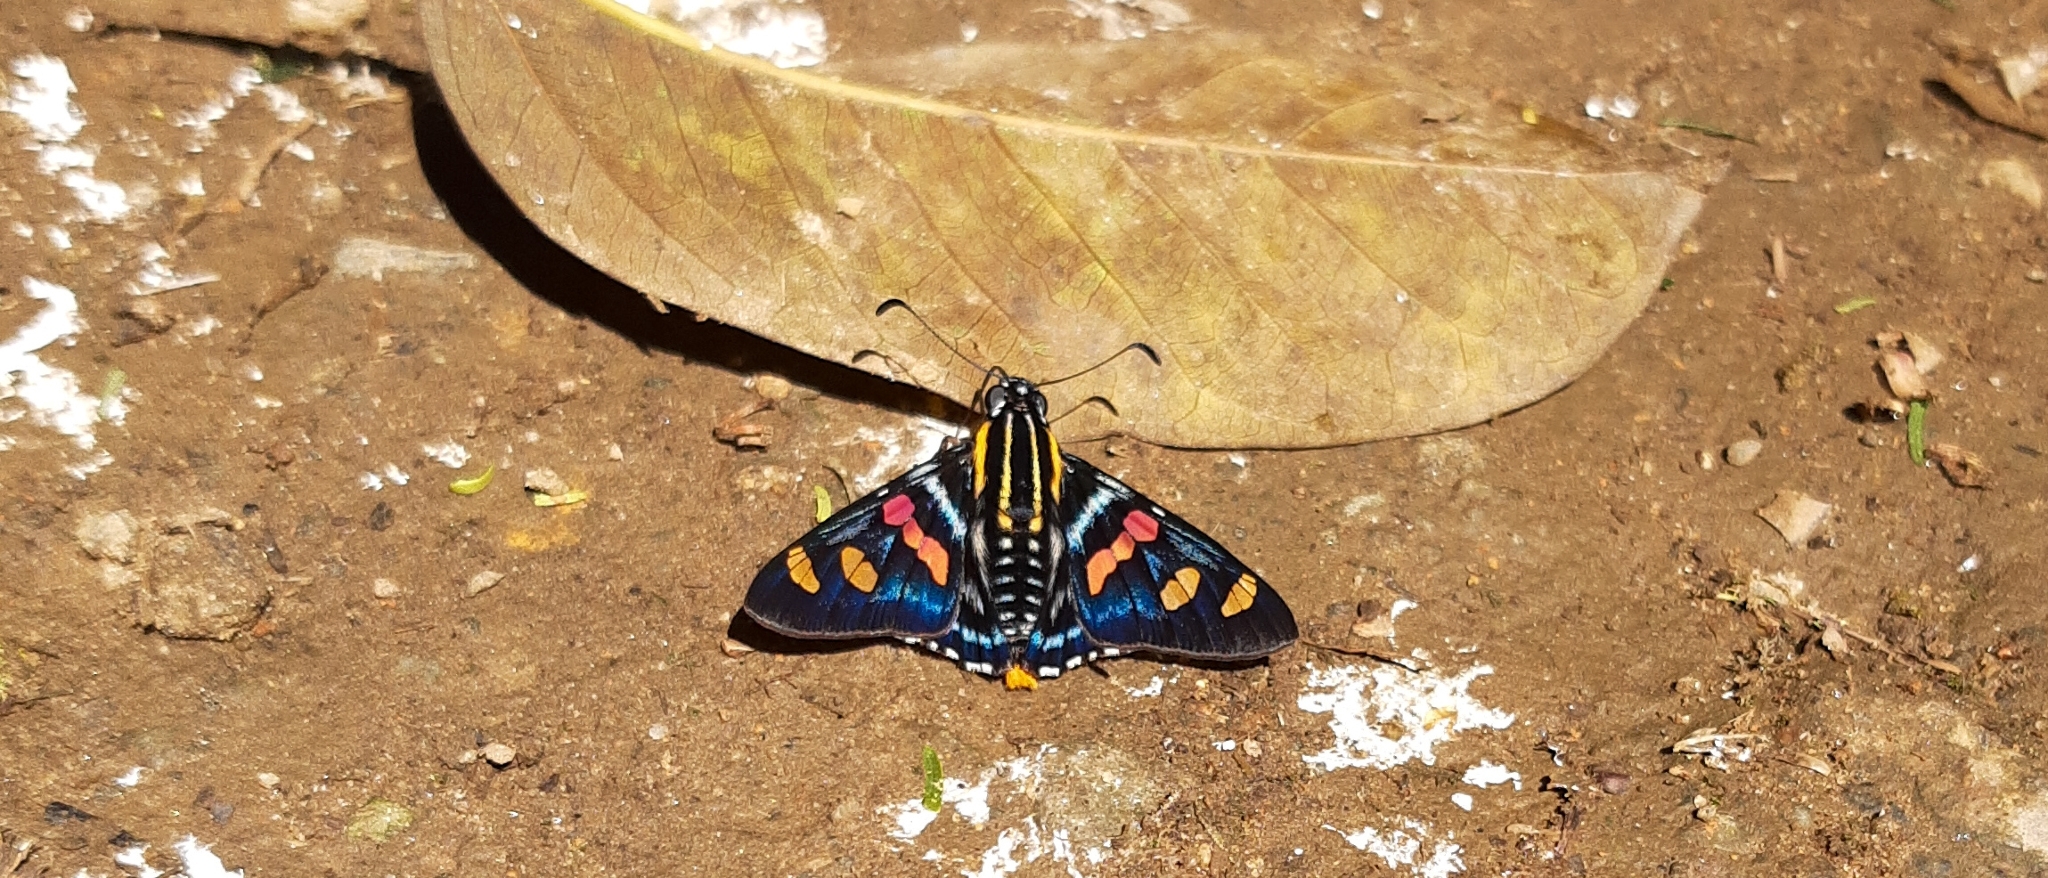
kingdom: Animalia
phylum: Arthropoda
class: Insecta
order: Lepidoptera
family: Hesperiidae
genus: Mimoniades
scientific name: Mimoniades versicolor
